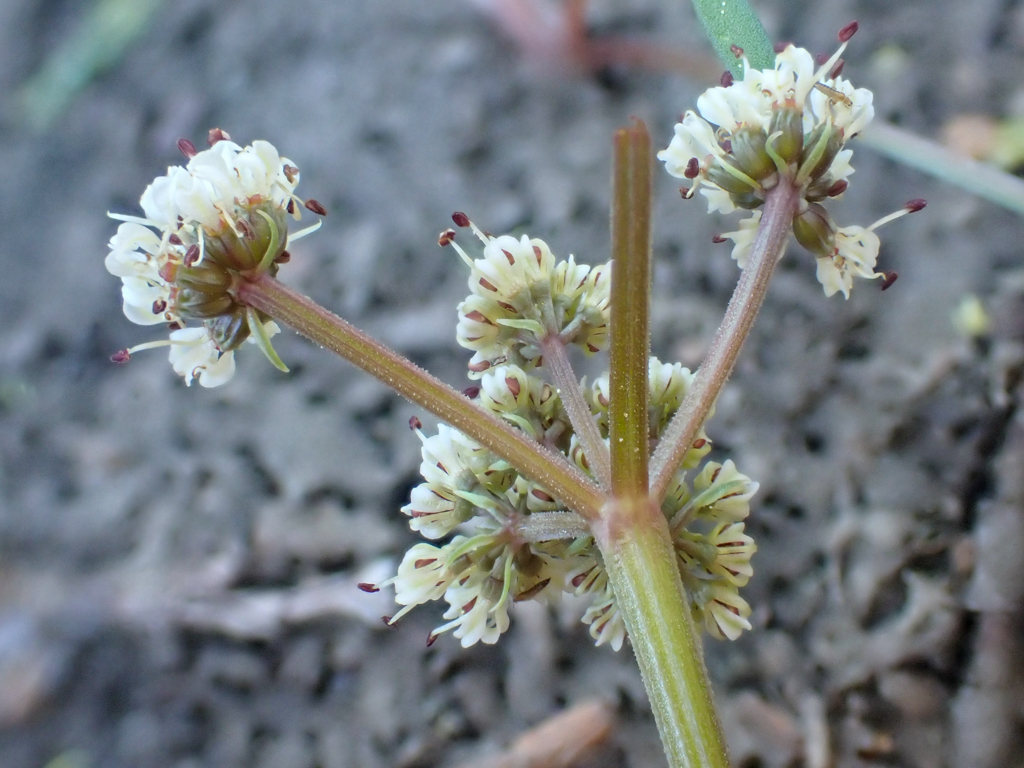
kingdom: Plantae
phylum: Tracheophyta
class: Magnoliopsida
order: Apiales
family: Apiaceae
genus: Lomatium
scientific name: Lomatium fusiformis
